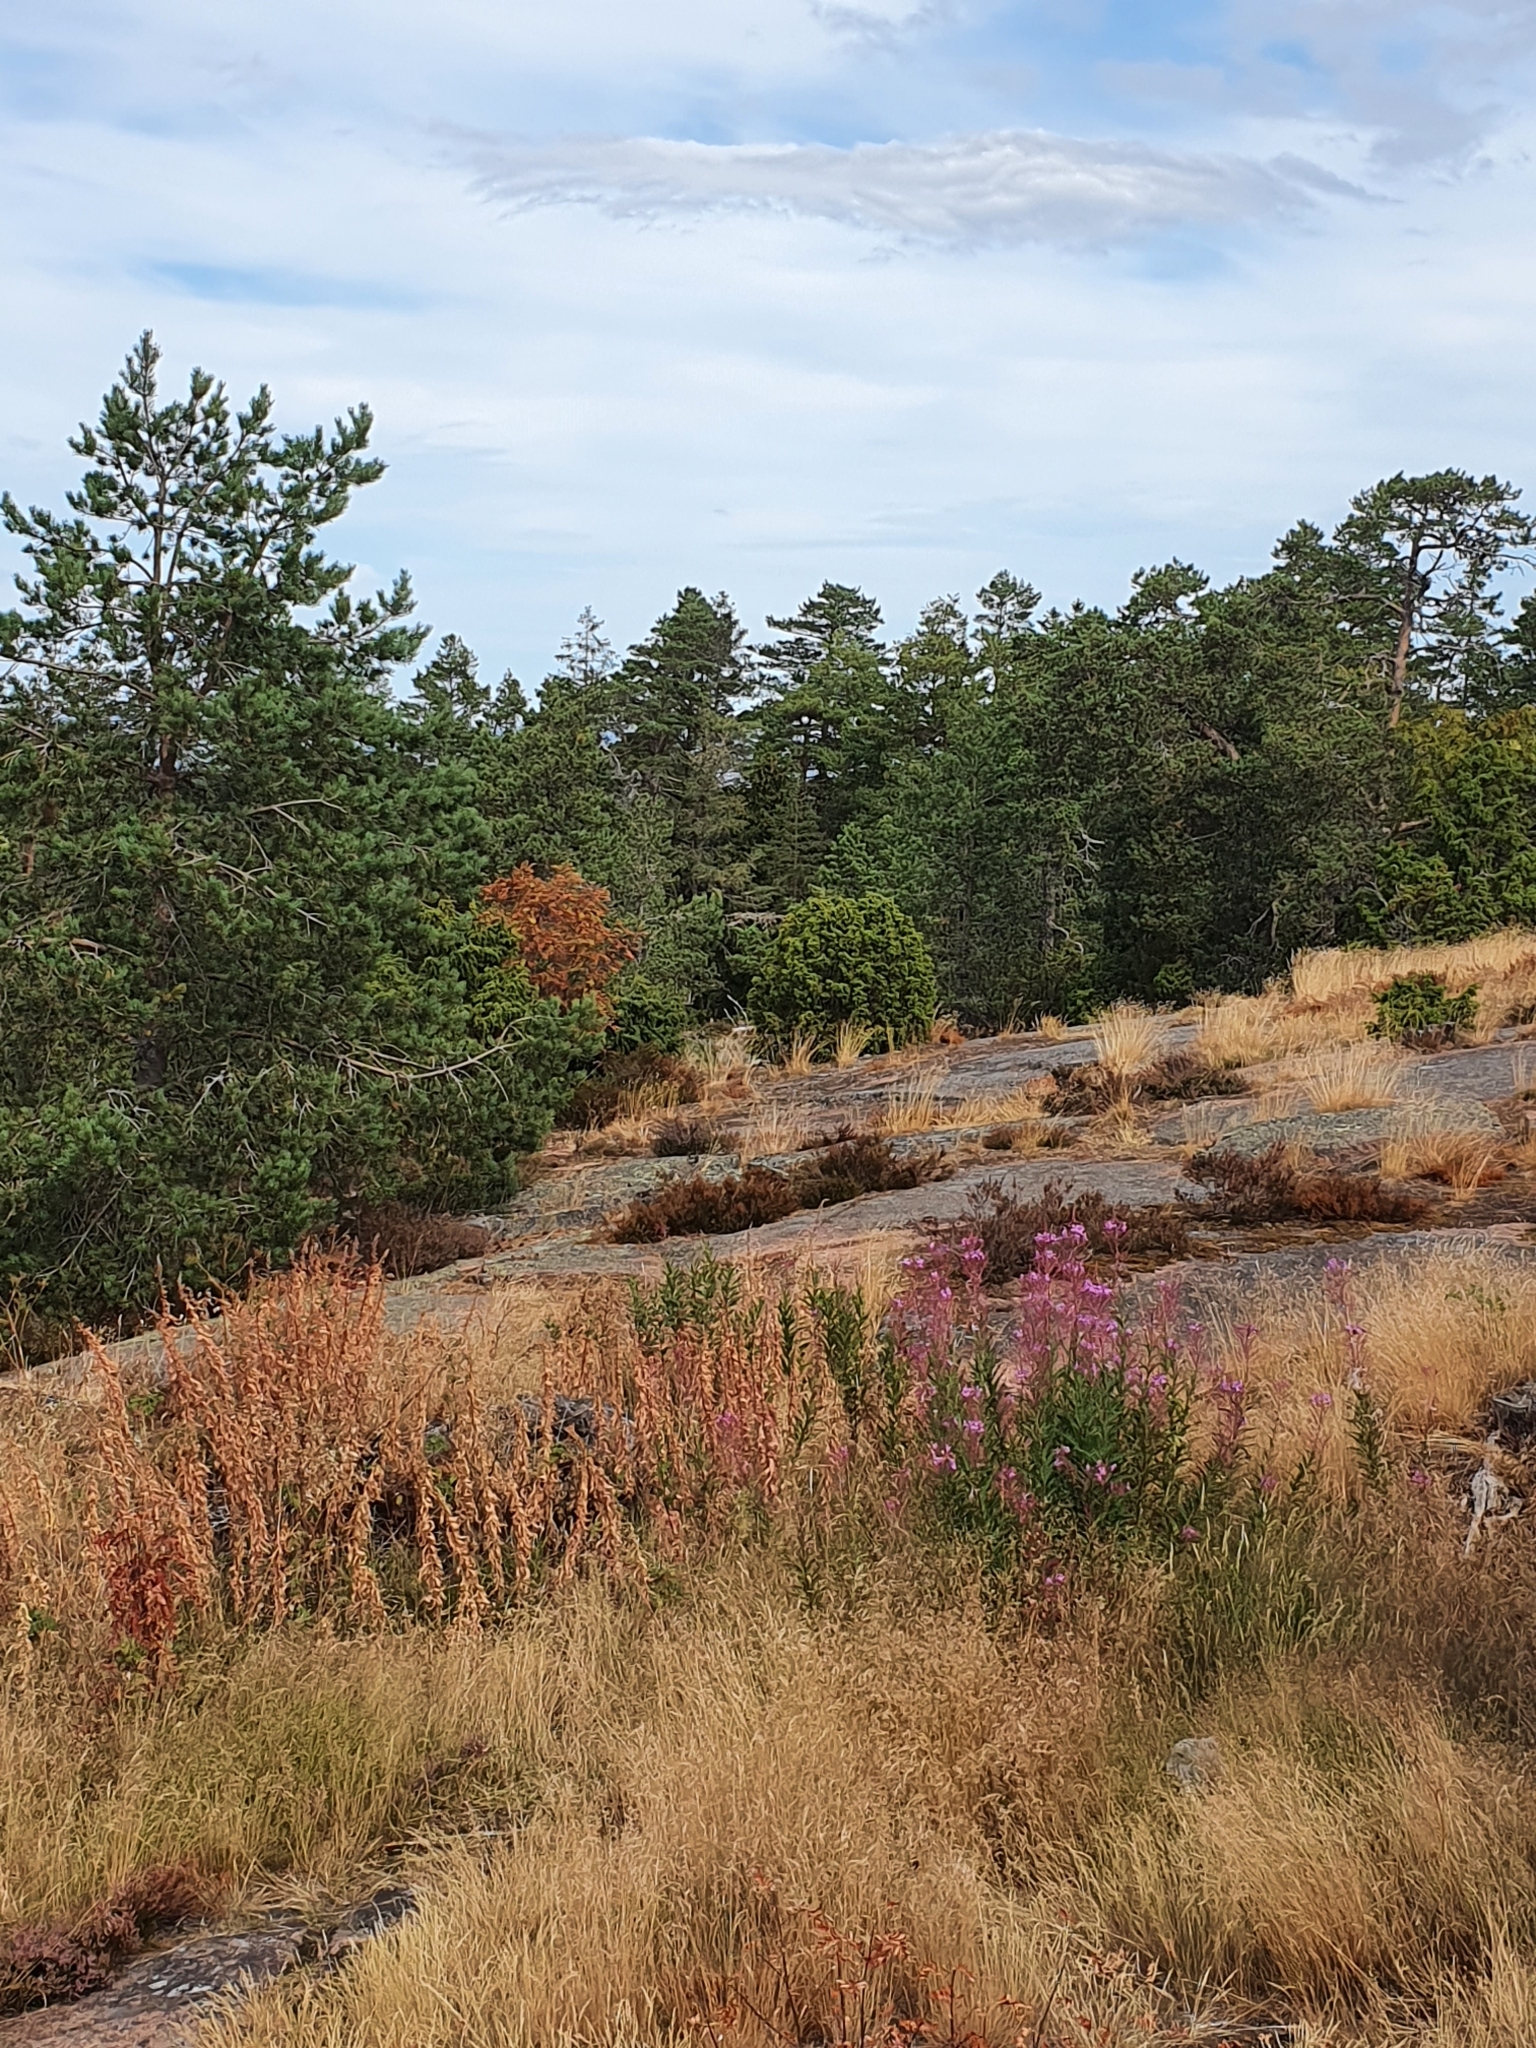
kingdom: Plantae
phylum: Tracheophyta
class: Magnoliopsida
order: Myrtales
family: Onagraceae
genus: Chamaenerion
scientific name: Chamaenerion angustifolium
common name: Fireweed
